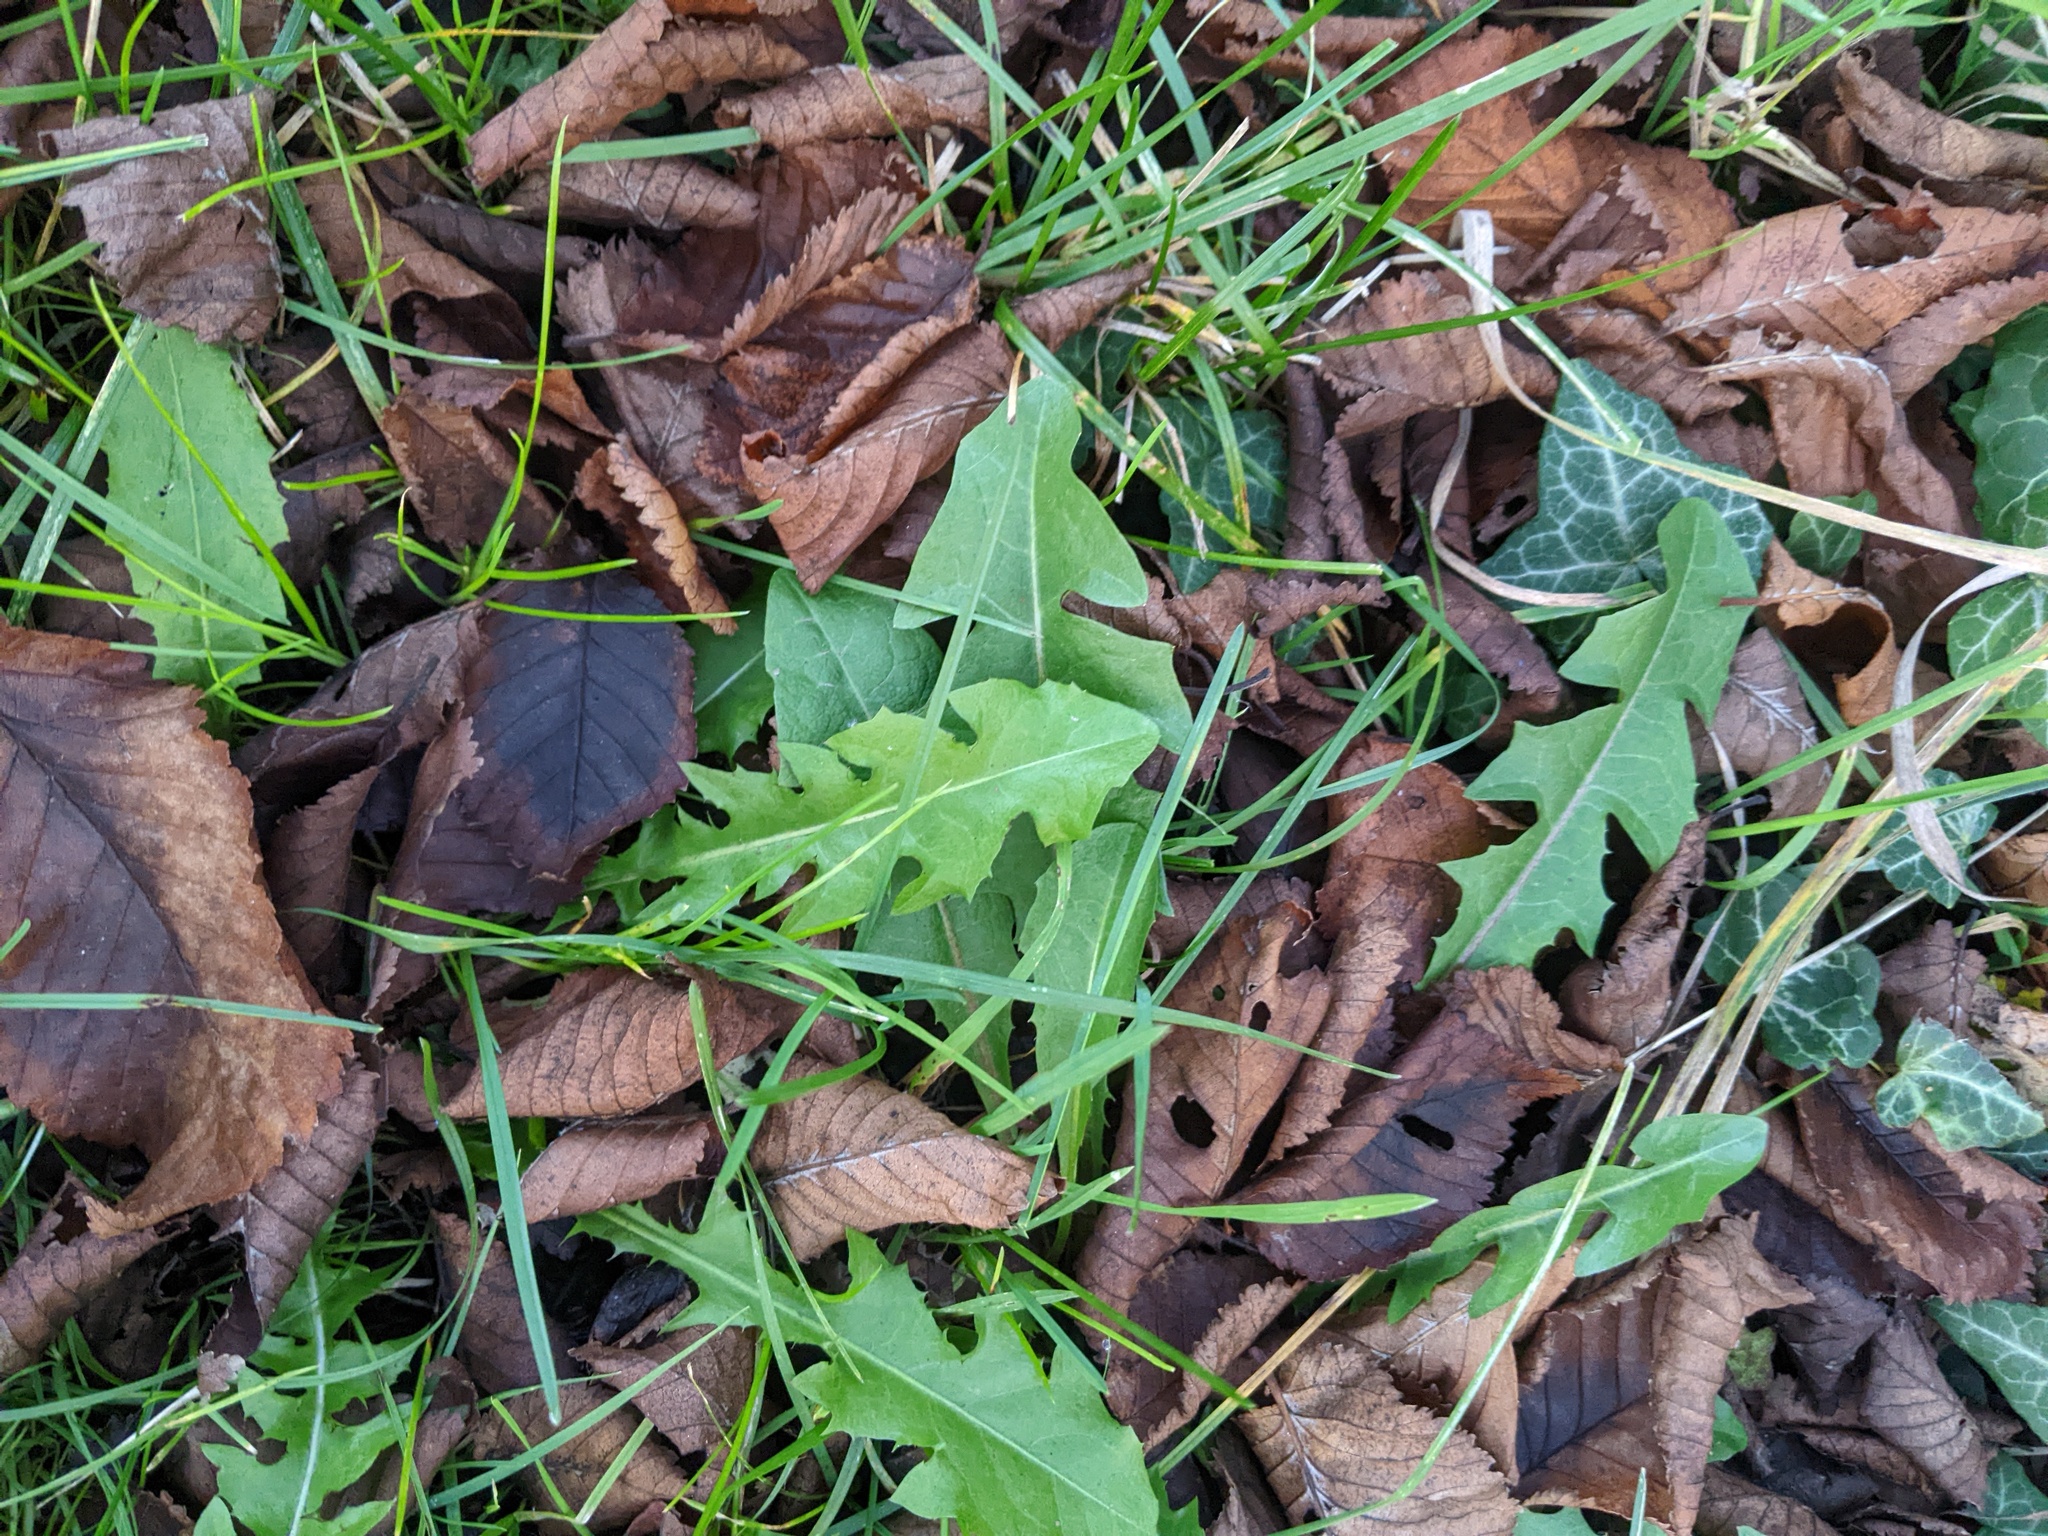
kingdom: Plantae
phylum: Tracheophyta
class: Magnoliopsida
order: Asterales
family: Asteraceae
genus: Taraxacum
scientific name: Taraxacum officinale
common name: Common dandelion
